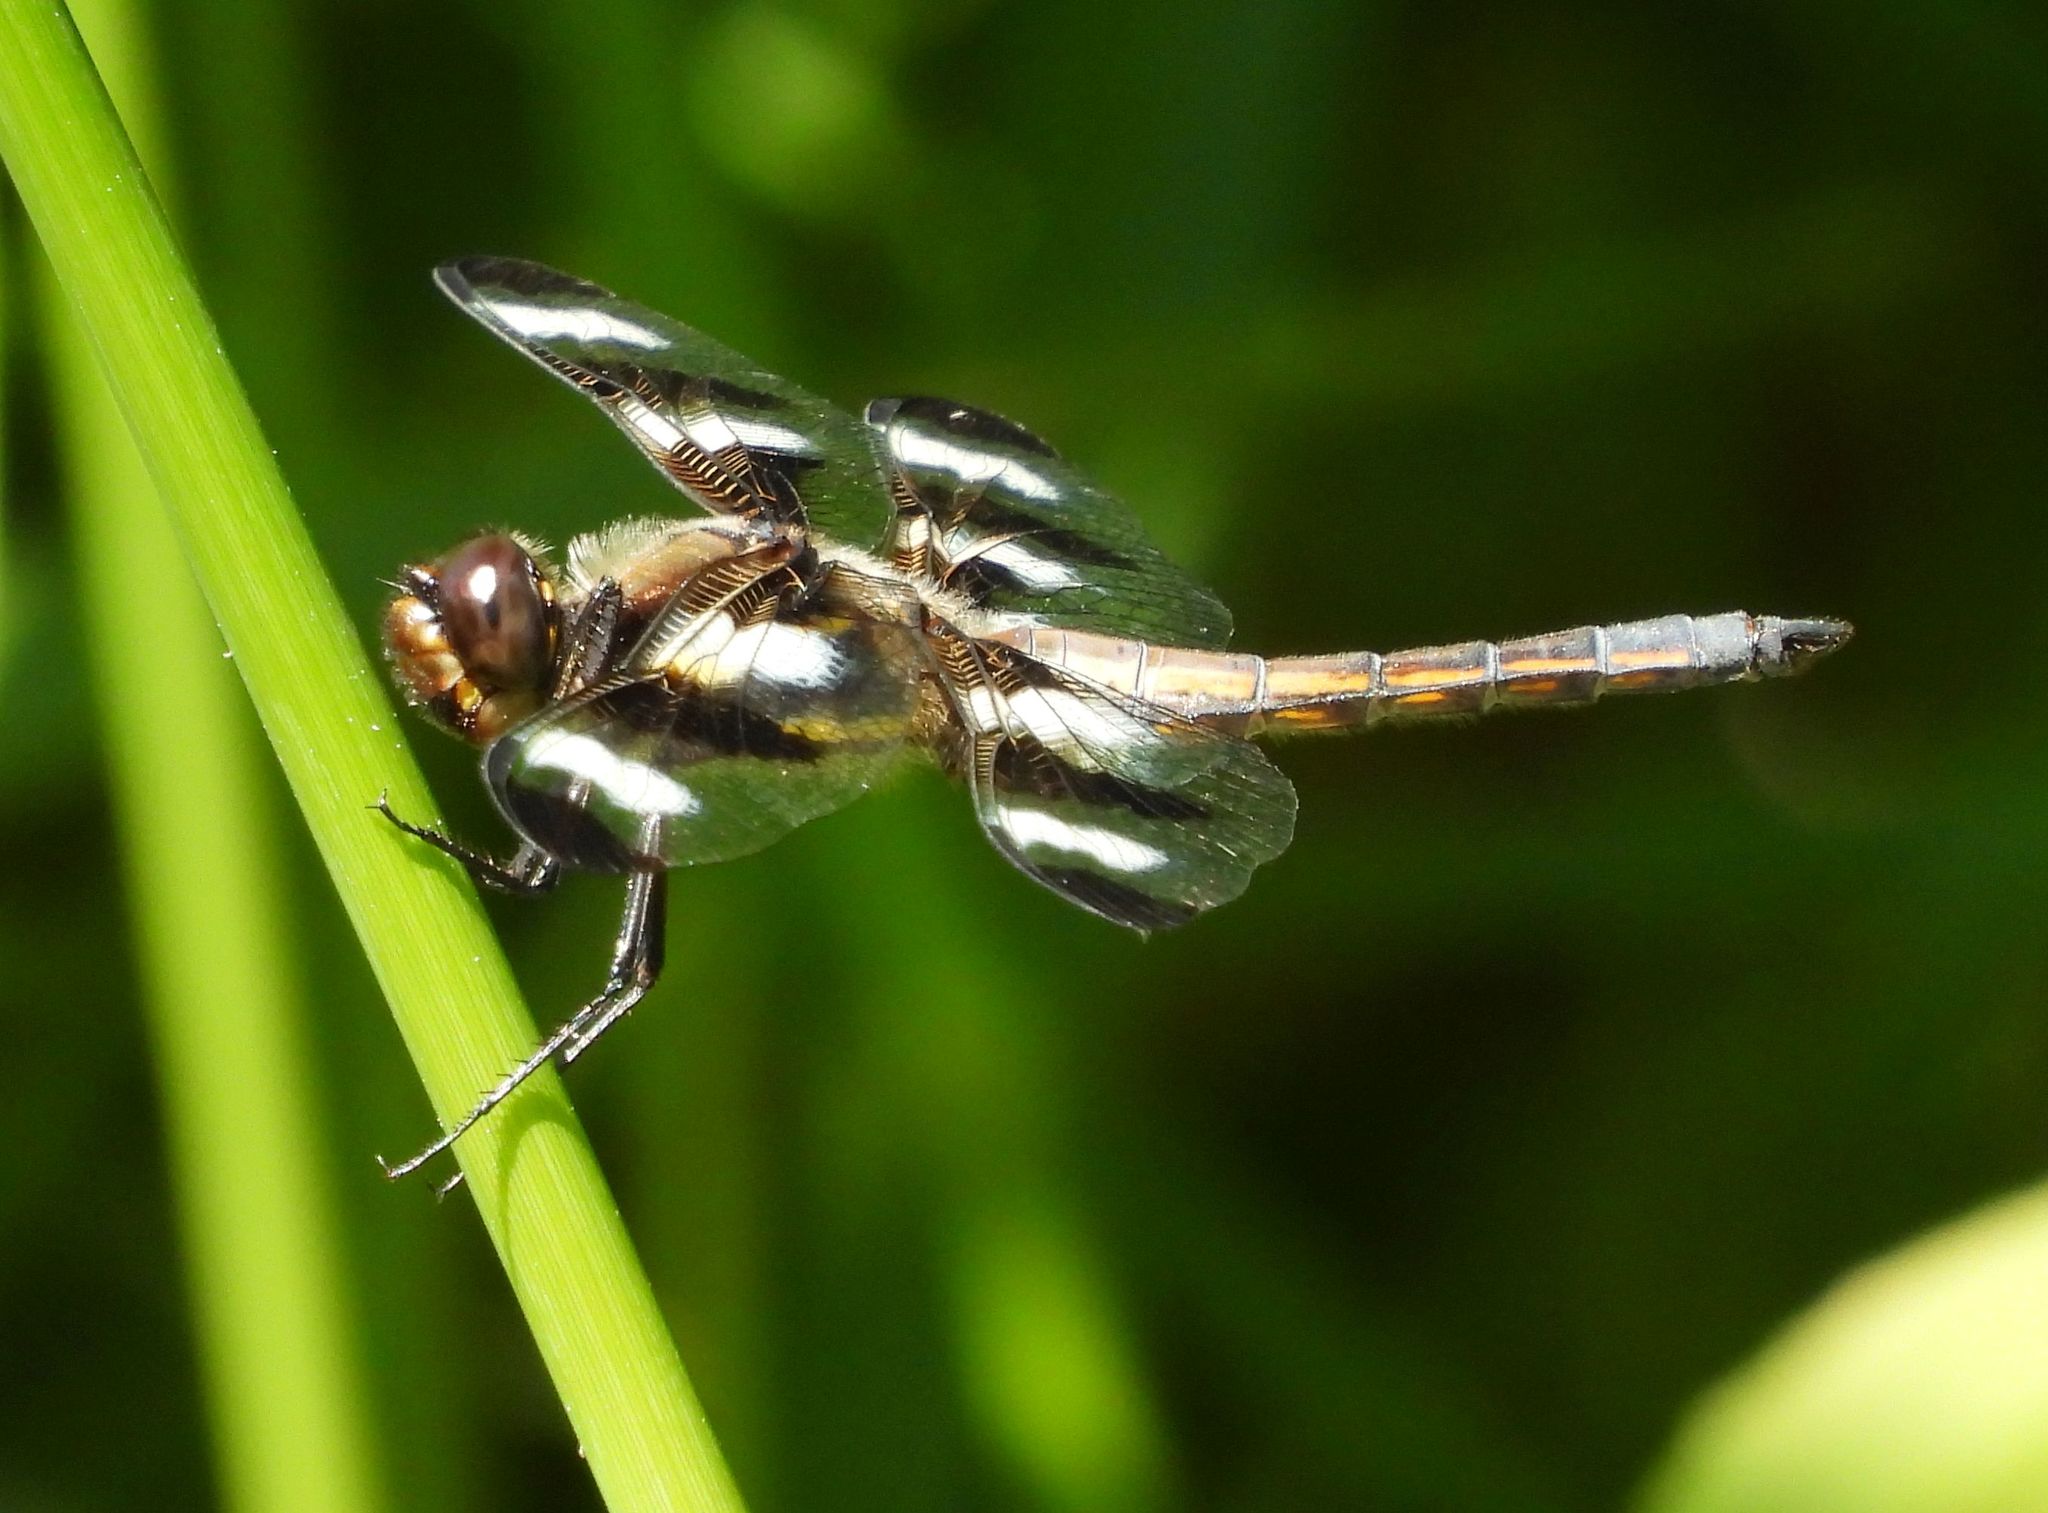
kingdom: Animalia
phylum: Arthropoda
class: Insecta
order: Odonata
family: Libellulidae
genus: Libellula
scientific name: Libellula pulchella
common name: Twelve-spotted skimmer
